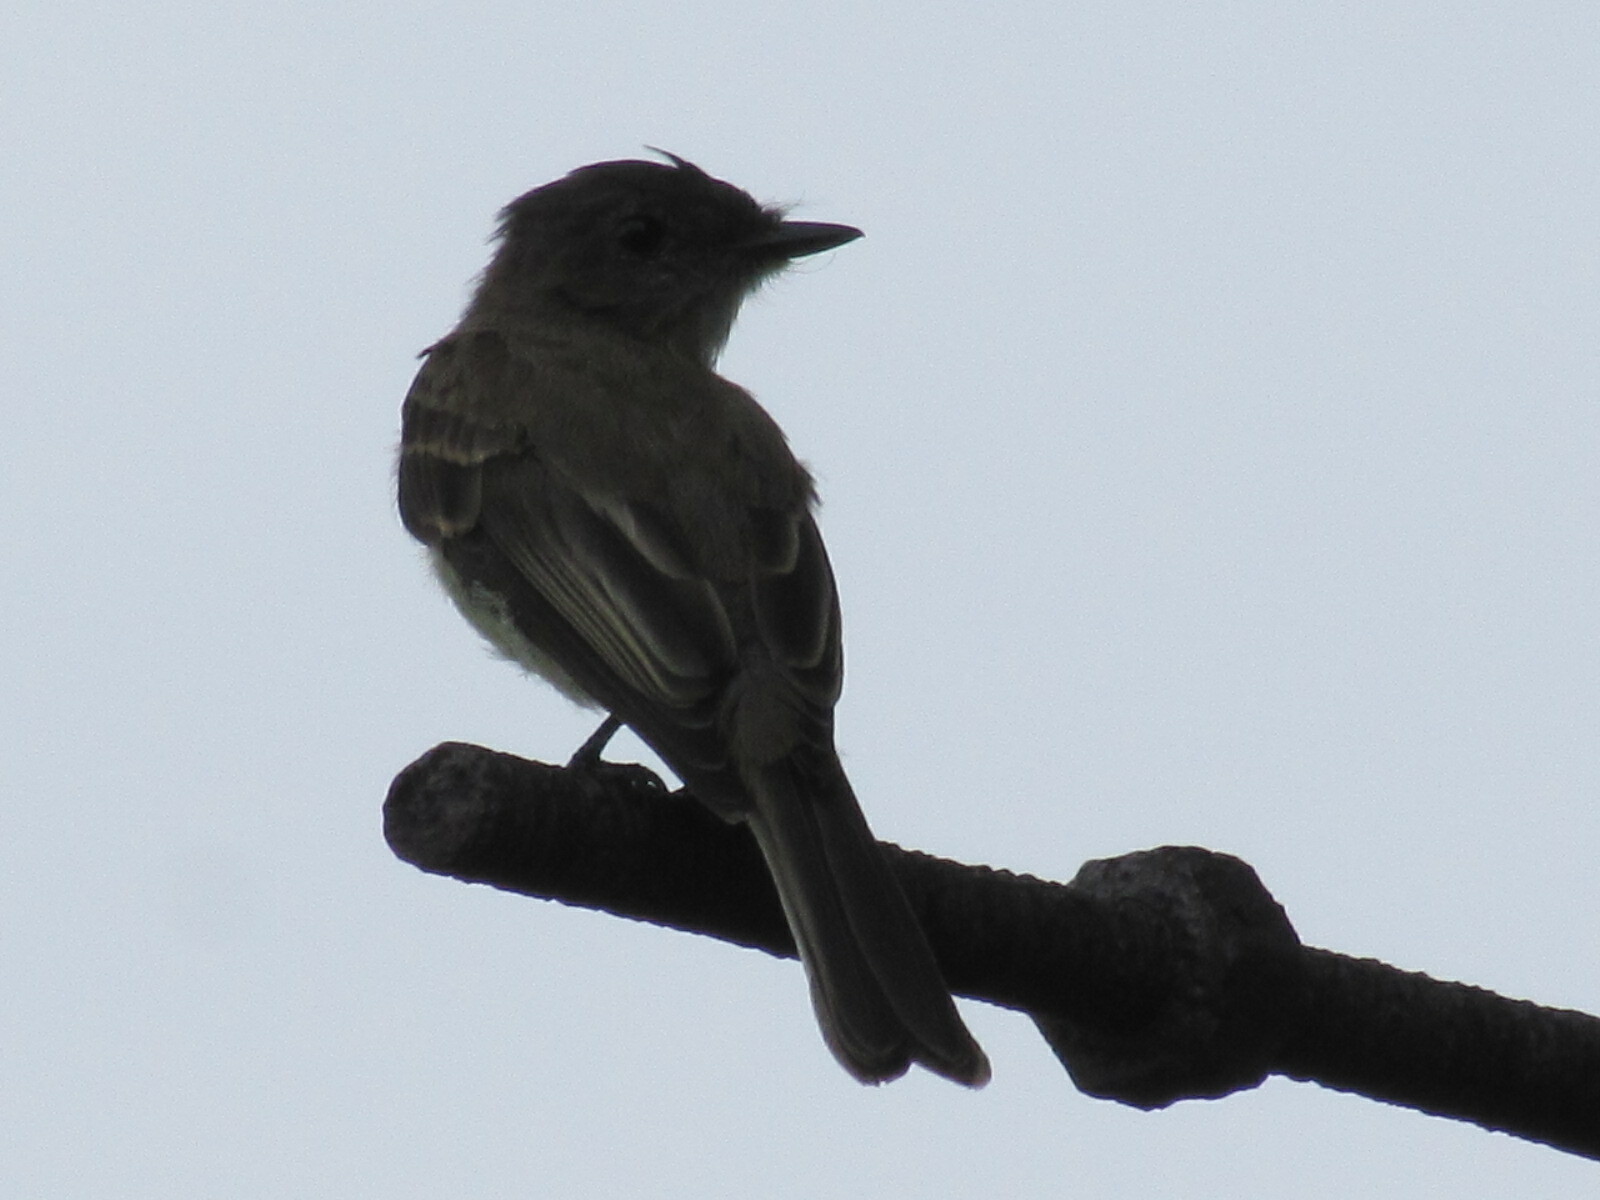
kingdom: Animalia
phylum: Chordata
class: Aves
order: Passeriformes
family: Tyrannidae
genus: Sayornis
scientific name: Sayornis phoebe
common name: Eastern phoebe
